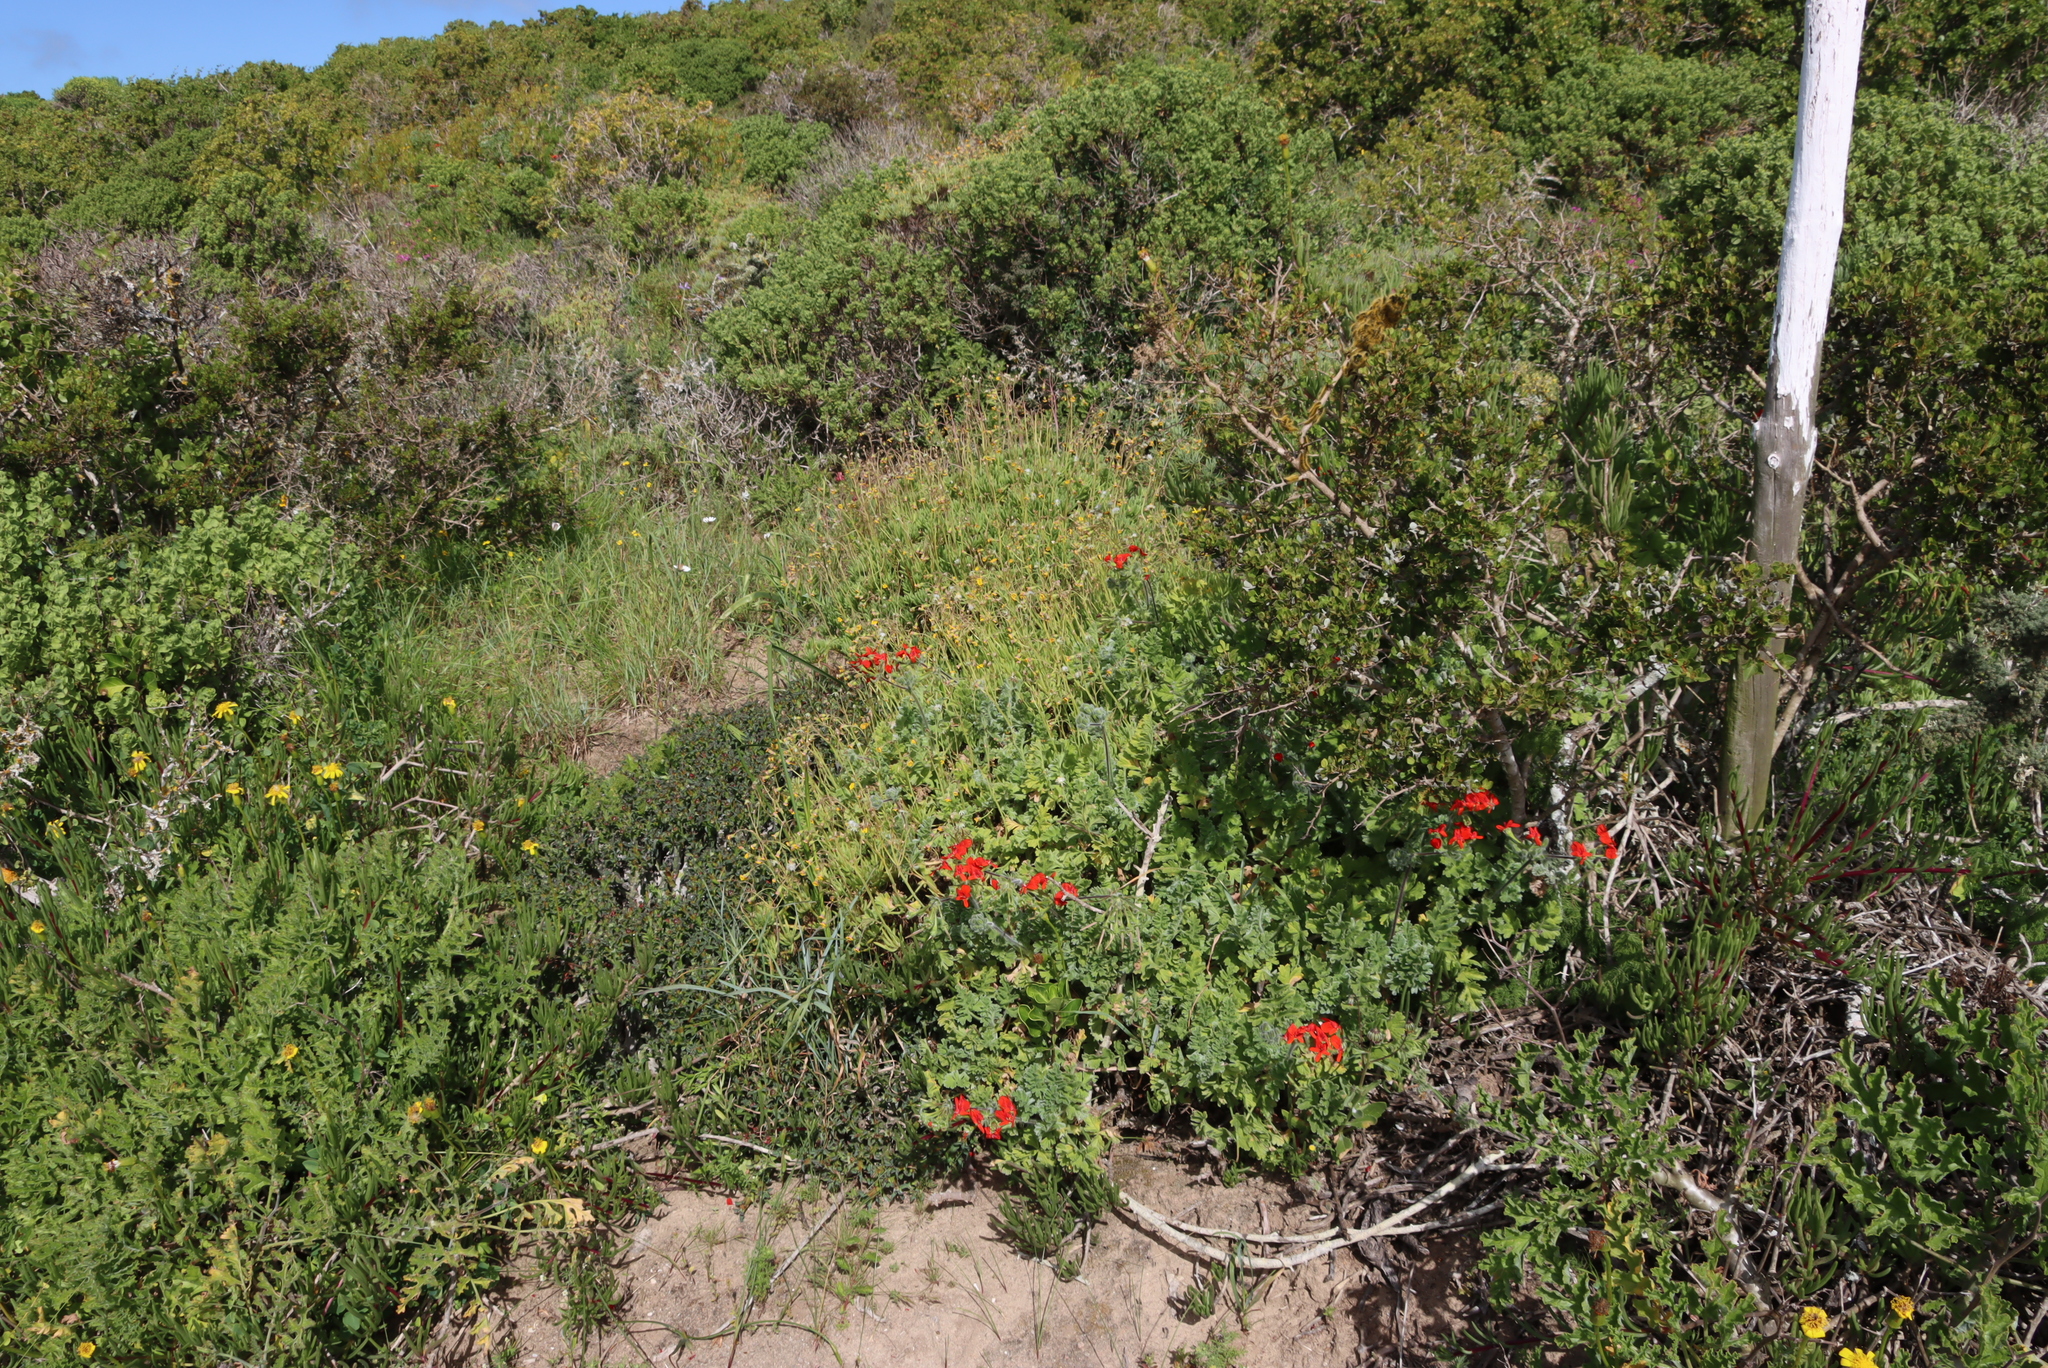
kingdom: Plantae
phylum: Tracheophyta
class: Magnoliopsida
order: Geraniales
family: Geraniaceae
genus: Pelargonium
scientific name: Pelargonium fulgidum
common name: Celandine-leaf pelargonium
